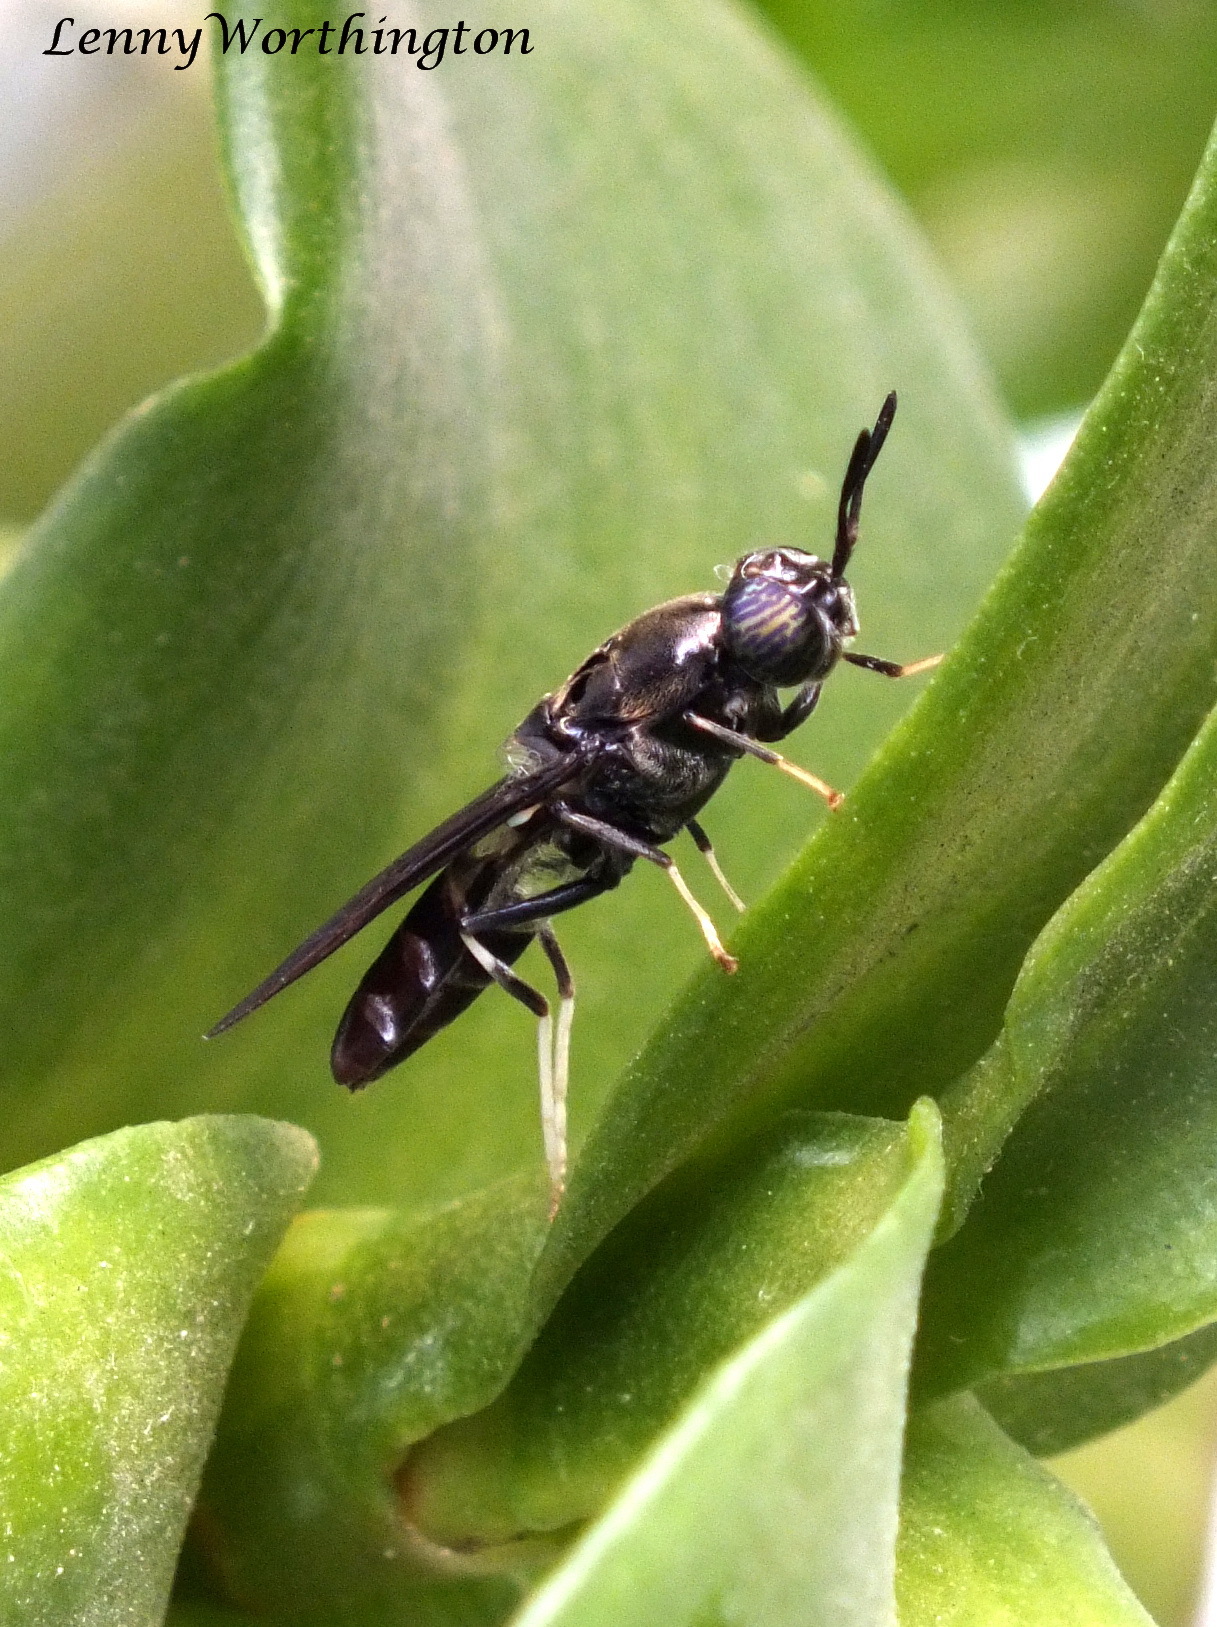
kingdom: Animalia
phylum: Arthropoda
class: Insecta
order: Diptera
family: Stratiomyidae
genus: Hermetia
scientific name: Hermetia illucens
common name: Black soldier fly
